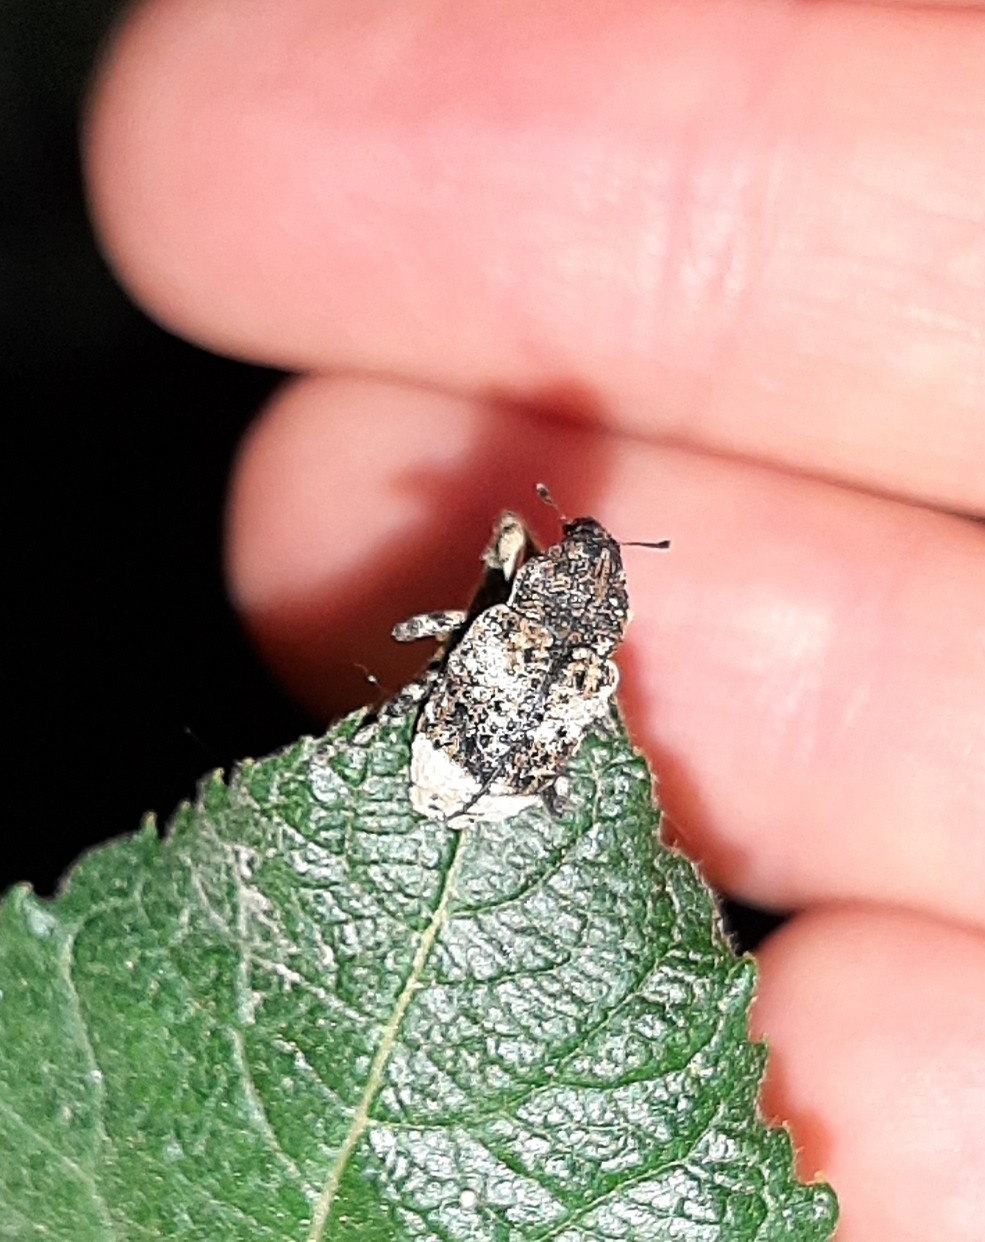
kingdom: Animalia
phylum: Arthropoda
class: Insecta
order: Coleoptera
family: Curculionidae
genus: Cryptorhynchus
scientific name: Cryptorhynchus lapathi
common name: Weevil
